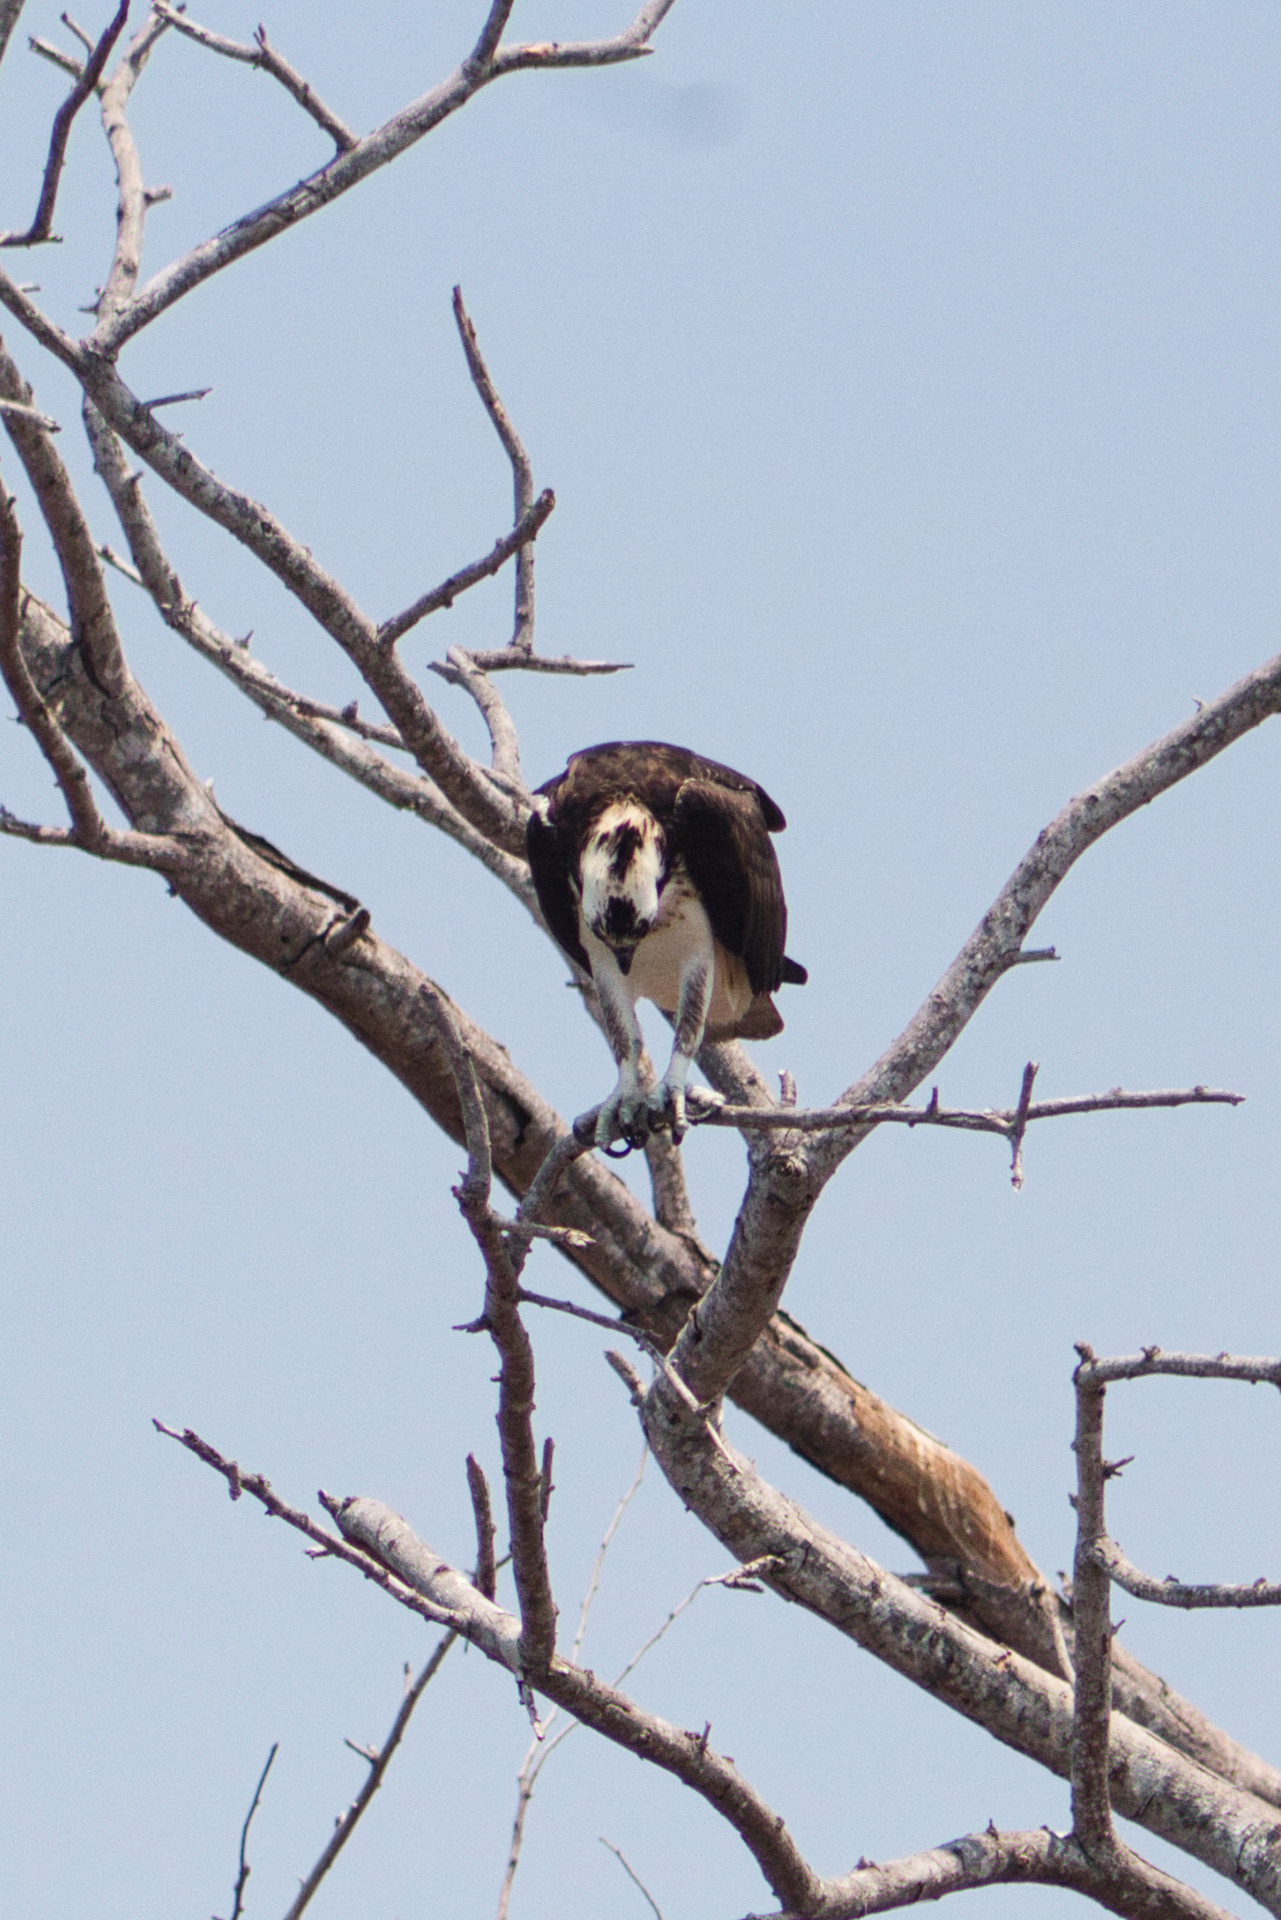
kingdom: Animalia
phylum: Chordata
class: Aves
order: Accipitriformes
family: Pandionidae
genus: Pandion
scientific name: Pandion haliaetus
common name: Osprey
